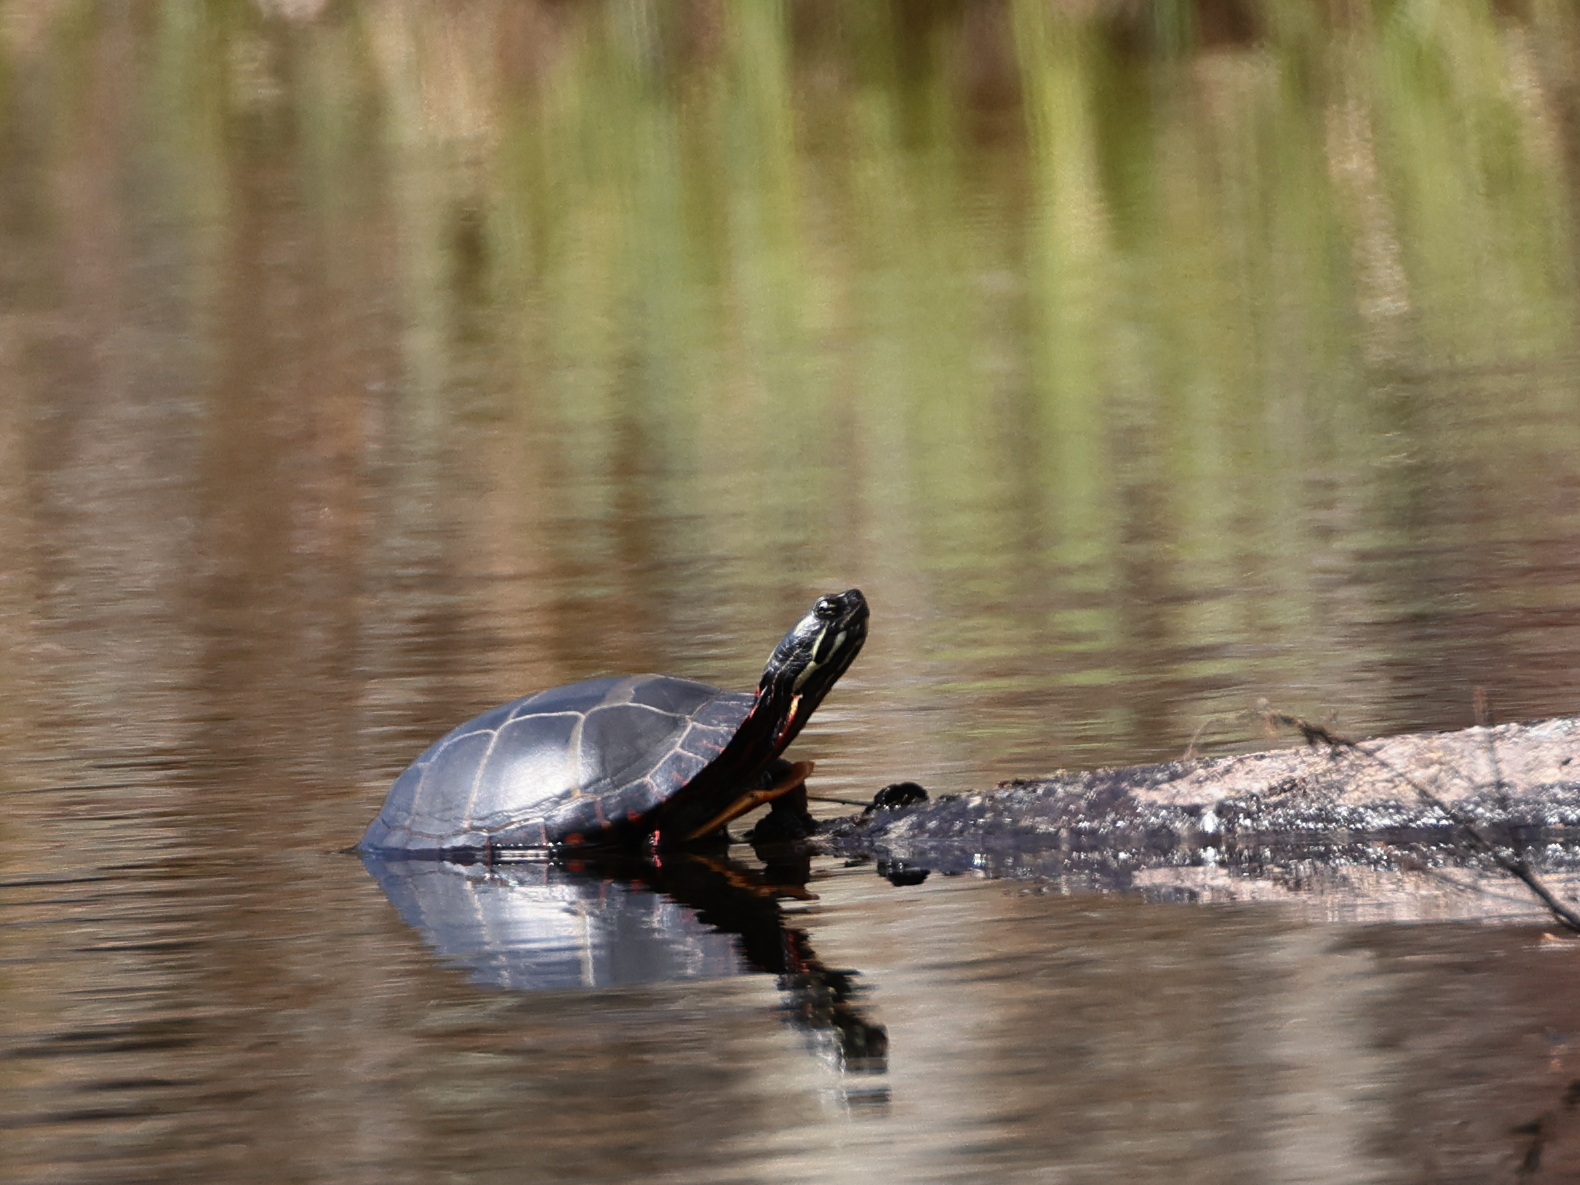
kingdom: Animalia
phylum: Chordata
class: Testudines
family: Emydidae
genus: Chrysemys
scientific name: Chrysemys picta
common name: Painted turtle
